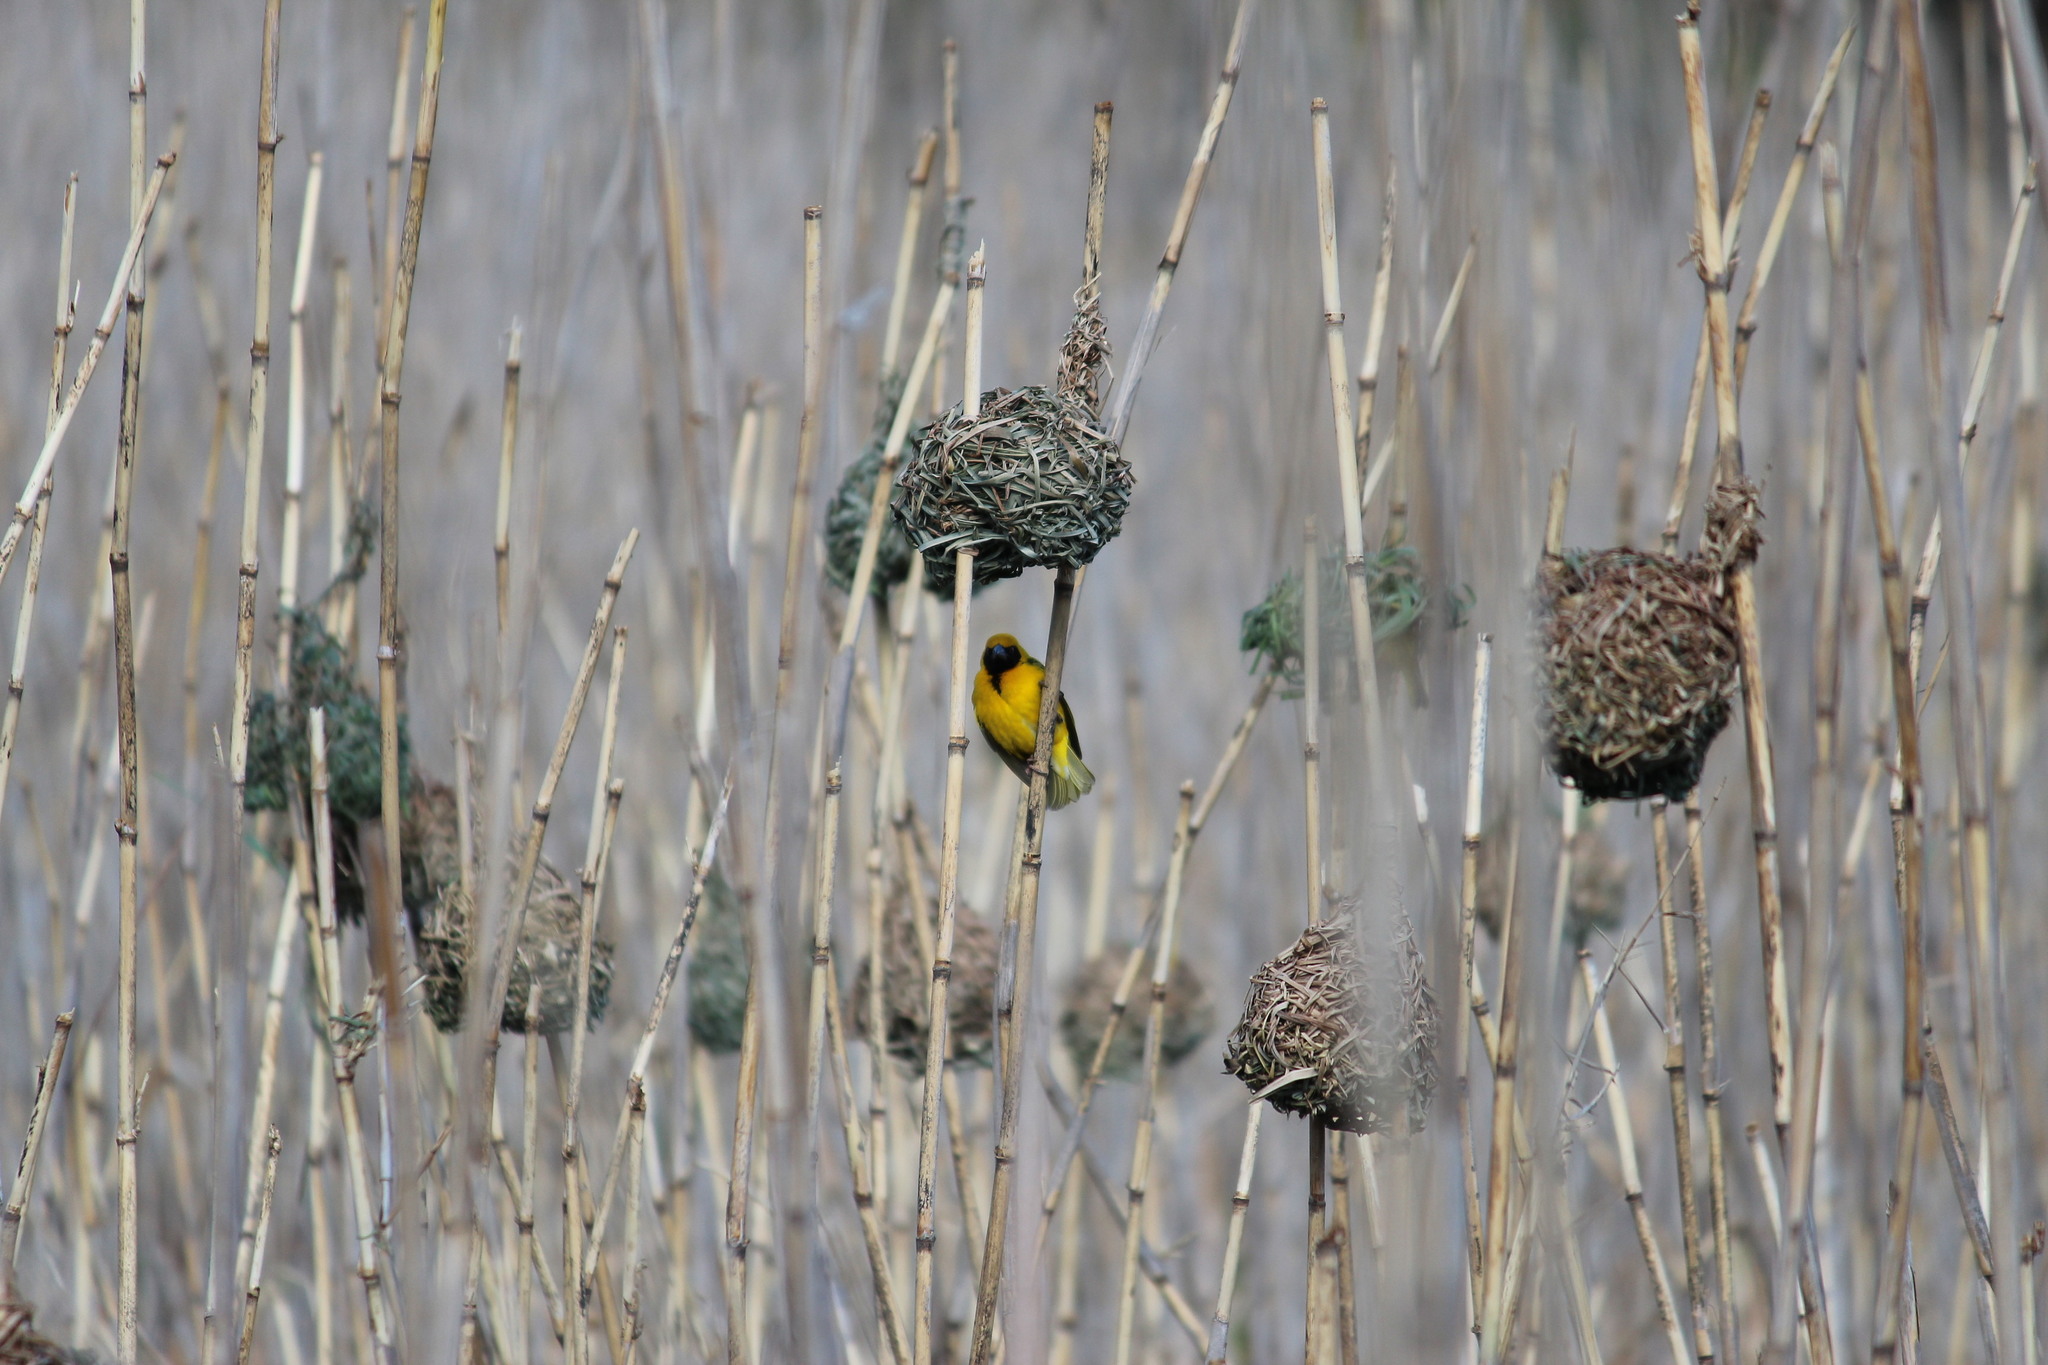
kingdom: Animalia
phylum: Chordata
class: Aves
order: Passeriformes
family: Ploceidae
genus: Ploceus
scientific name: Ploceus cucullatus
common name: Village weaver
